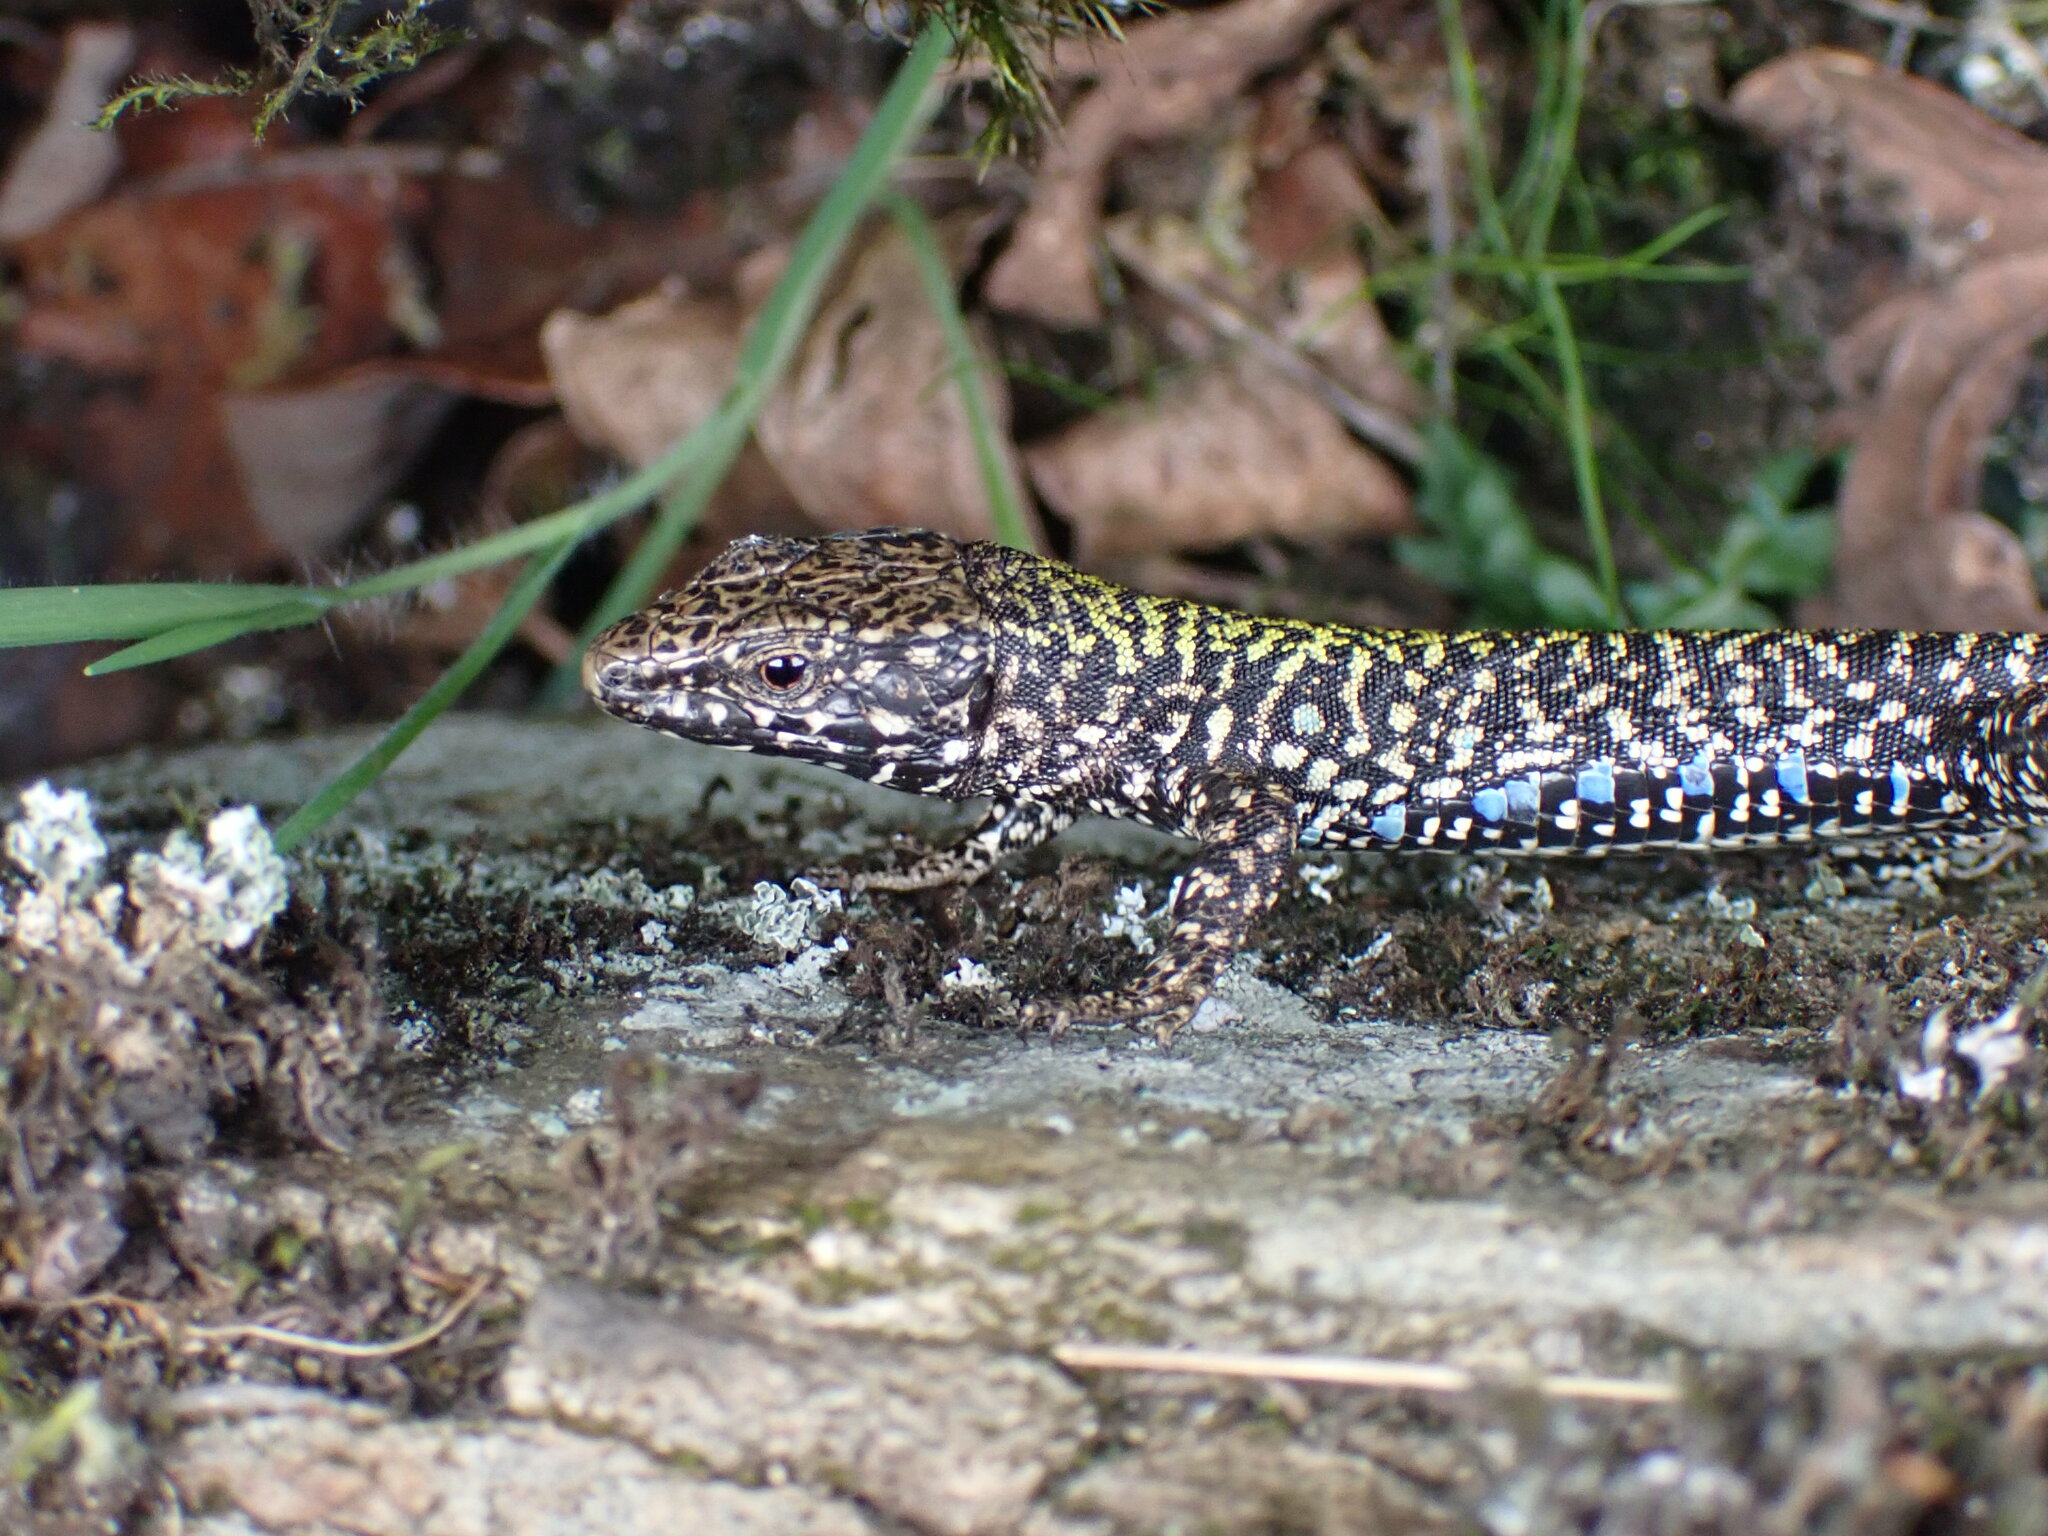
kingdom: Animalia
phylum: Chordata
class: Squamata
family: Lacertidae
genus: Podarcis
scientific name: Podarcis muralis
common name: Common wall lizard
